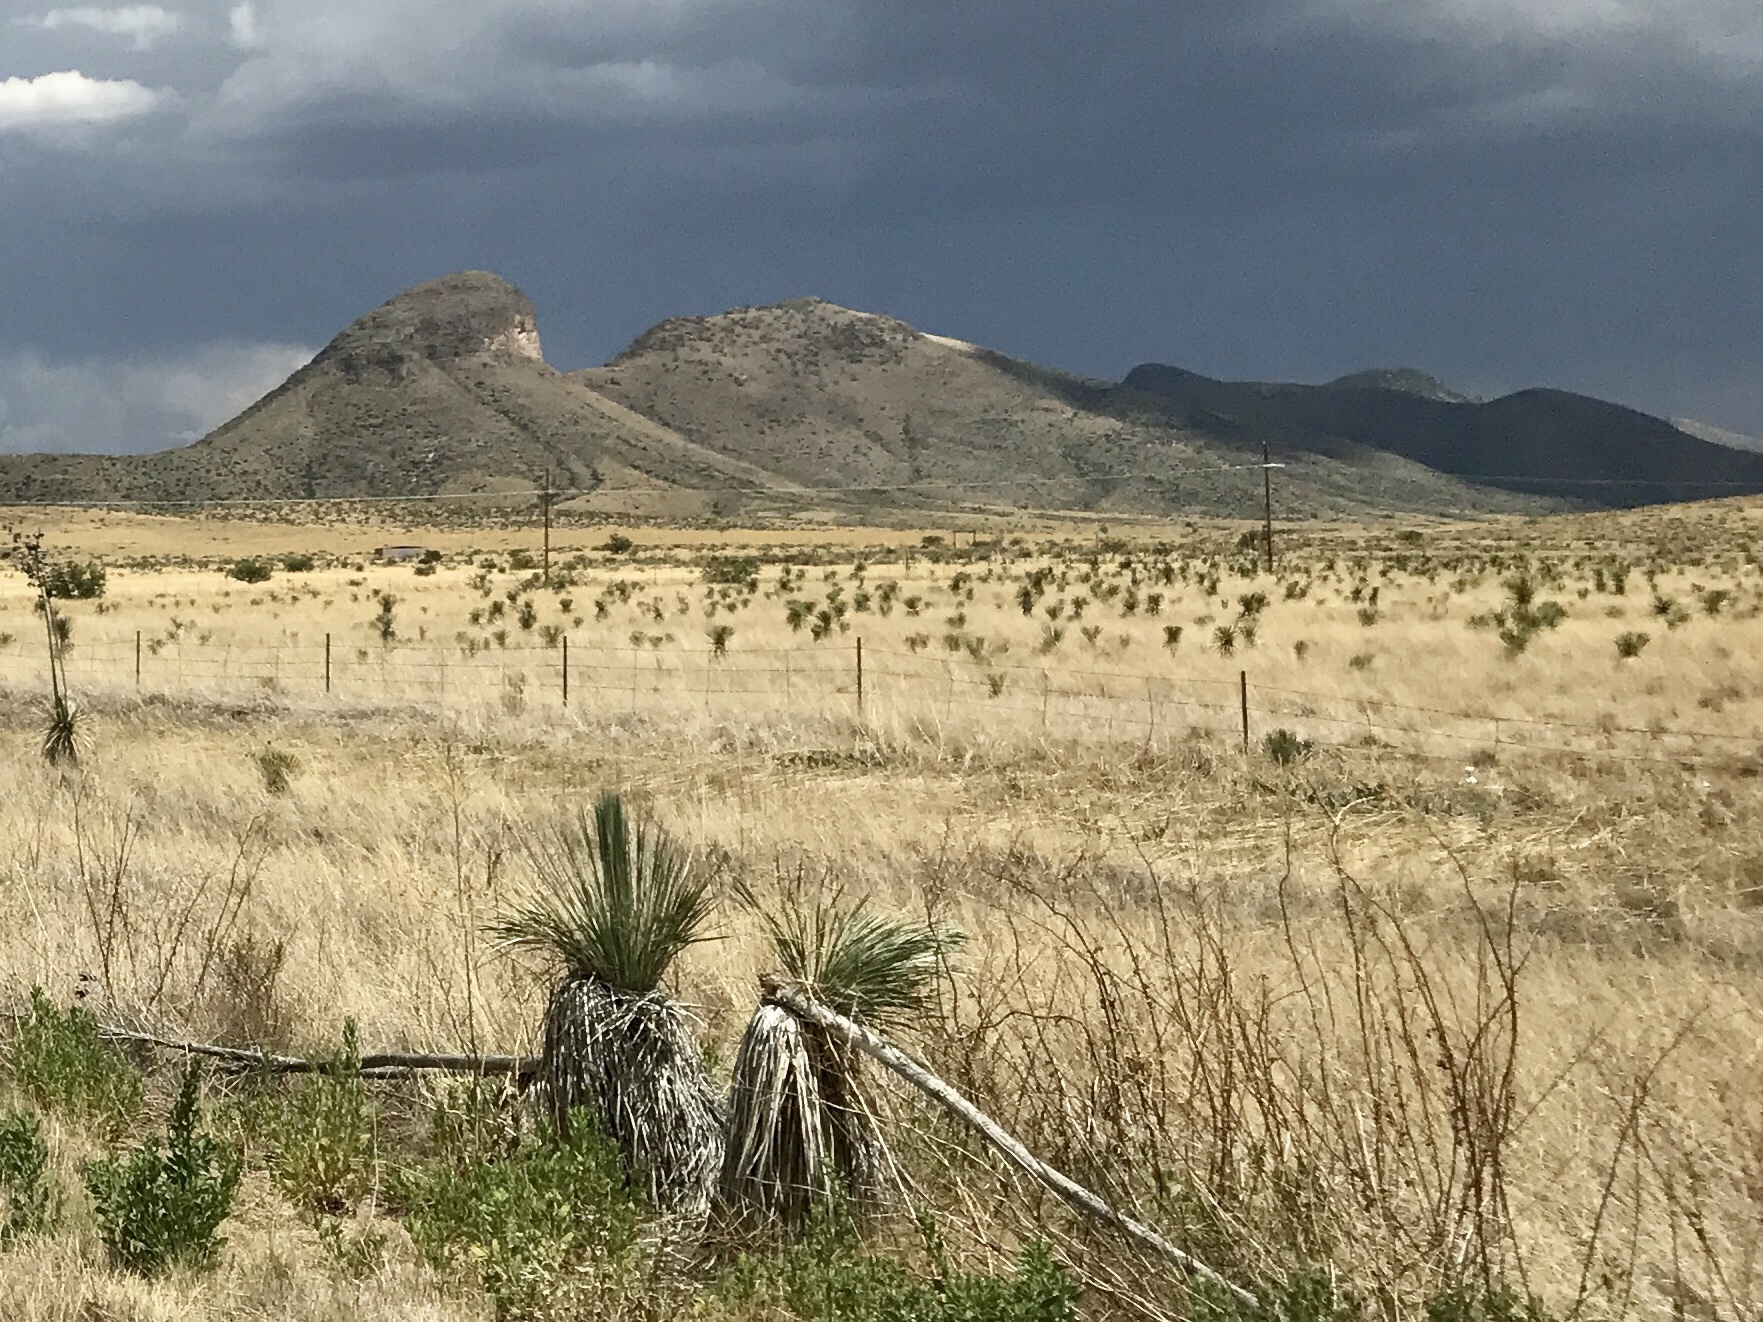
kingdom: Plantae
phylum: Tracheophyta
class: Liliopsida
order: Asparagales
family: Asparagaceae
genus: Yucca
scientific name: Yucca elata
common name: Palmella
